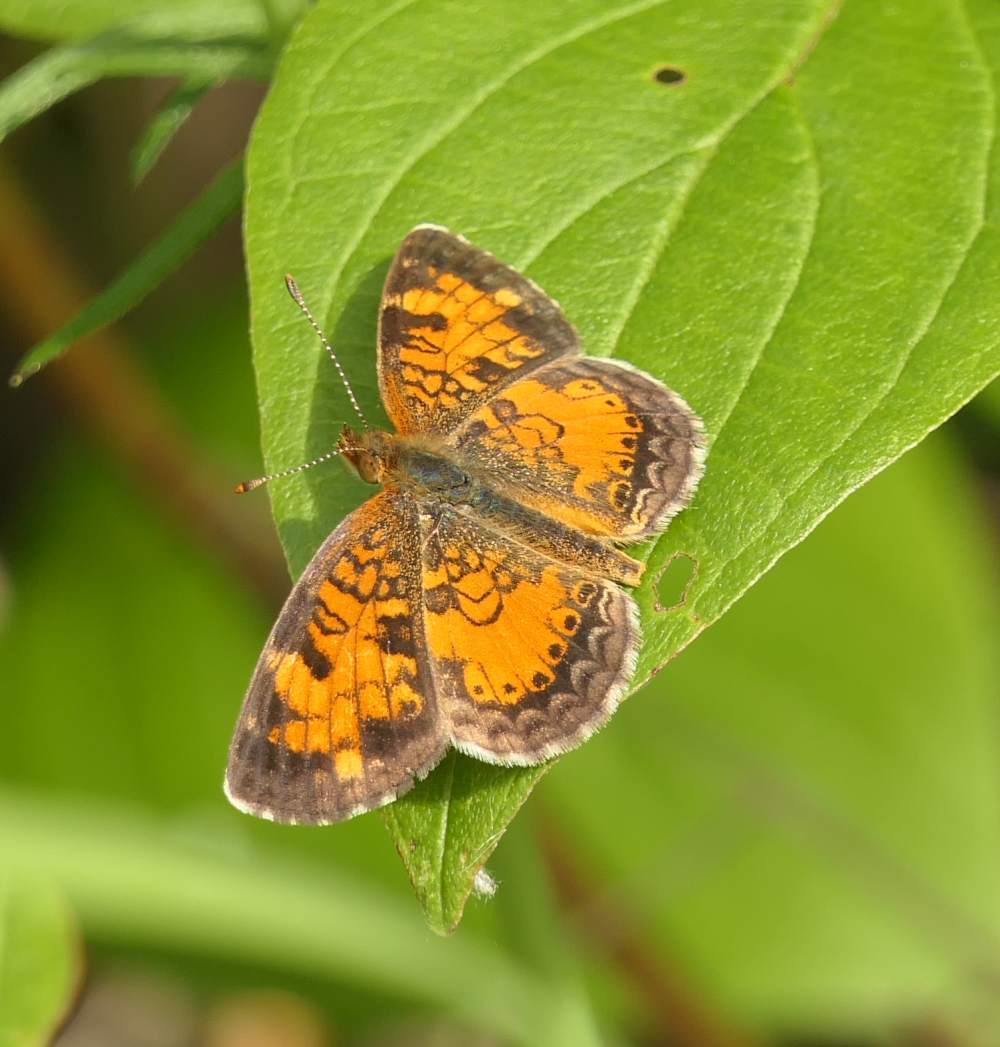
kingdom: Animalia
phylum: Arthropoda
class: Insecta
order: Lepidoptera
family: Nymphalidae
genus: Phyciodes
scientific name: Phyciodes tharos
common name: Pearl crescent
